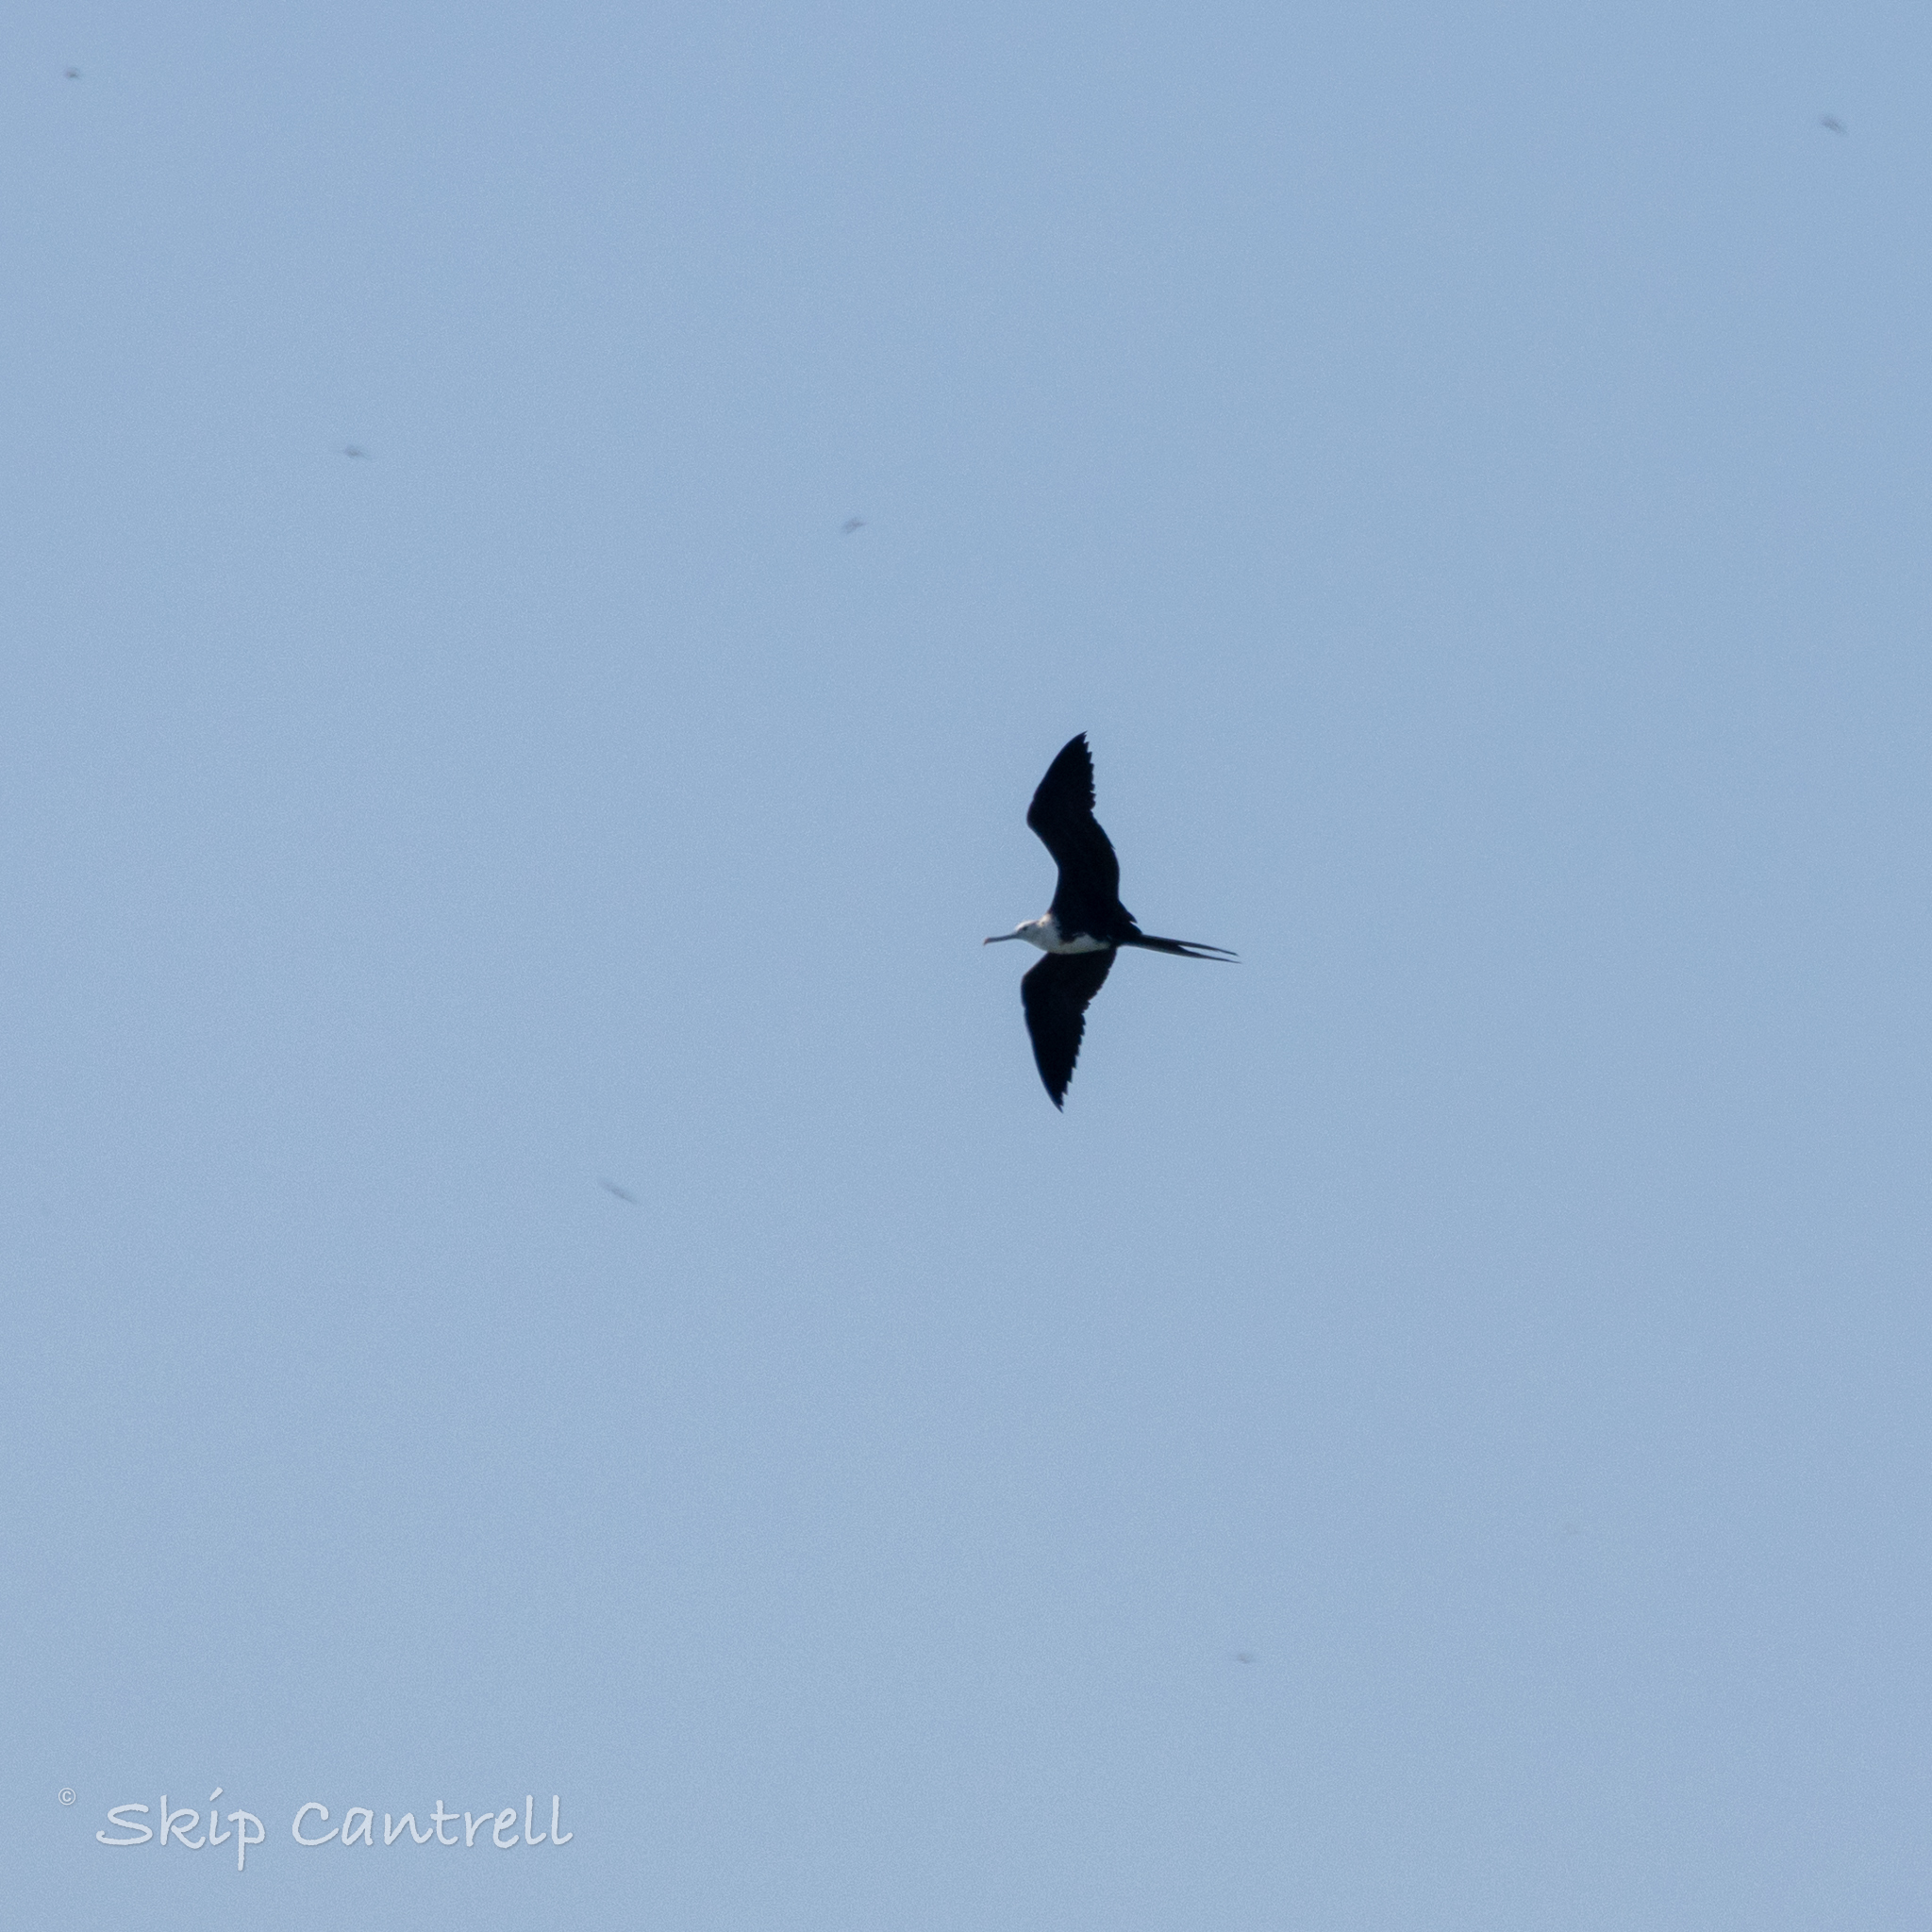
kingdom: Animalia
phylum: Chordata
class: Aves
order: Suliformes
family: Fregatidae
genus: Fregata
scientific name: Fregata magnificens
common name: Magnificent frigatebird
